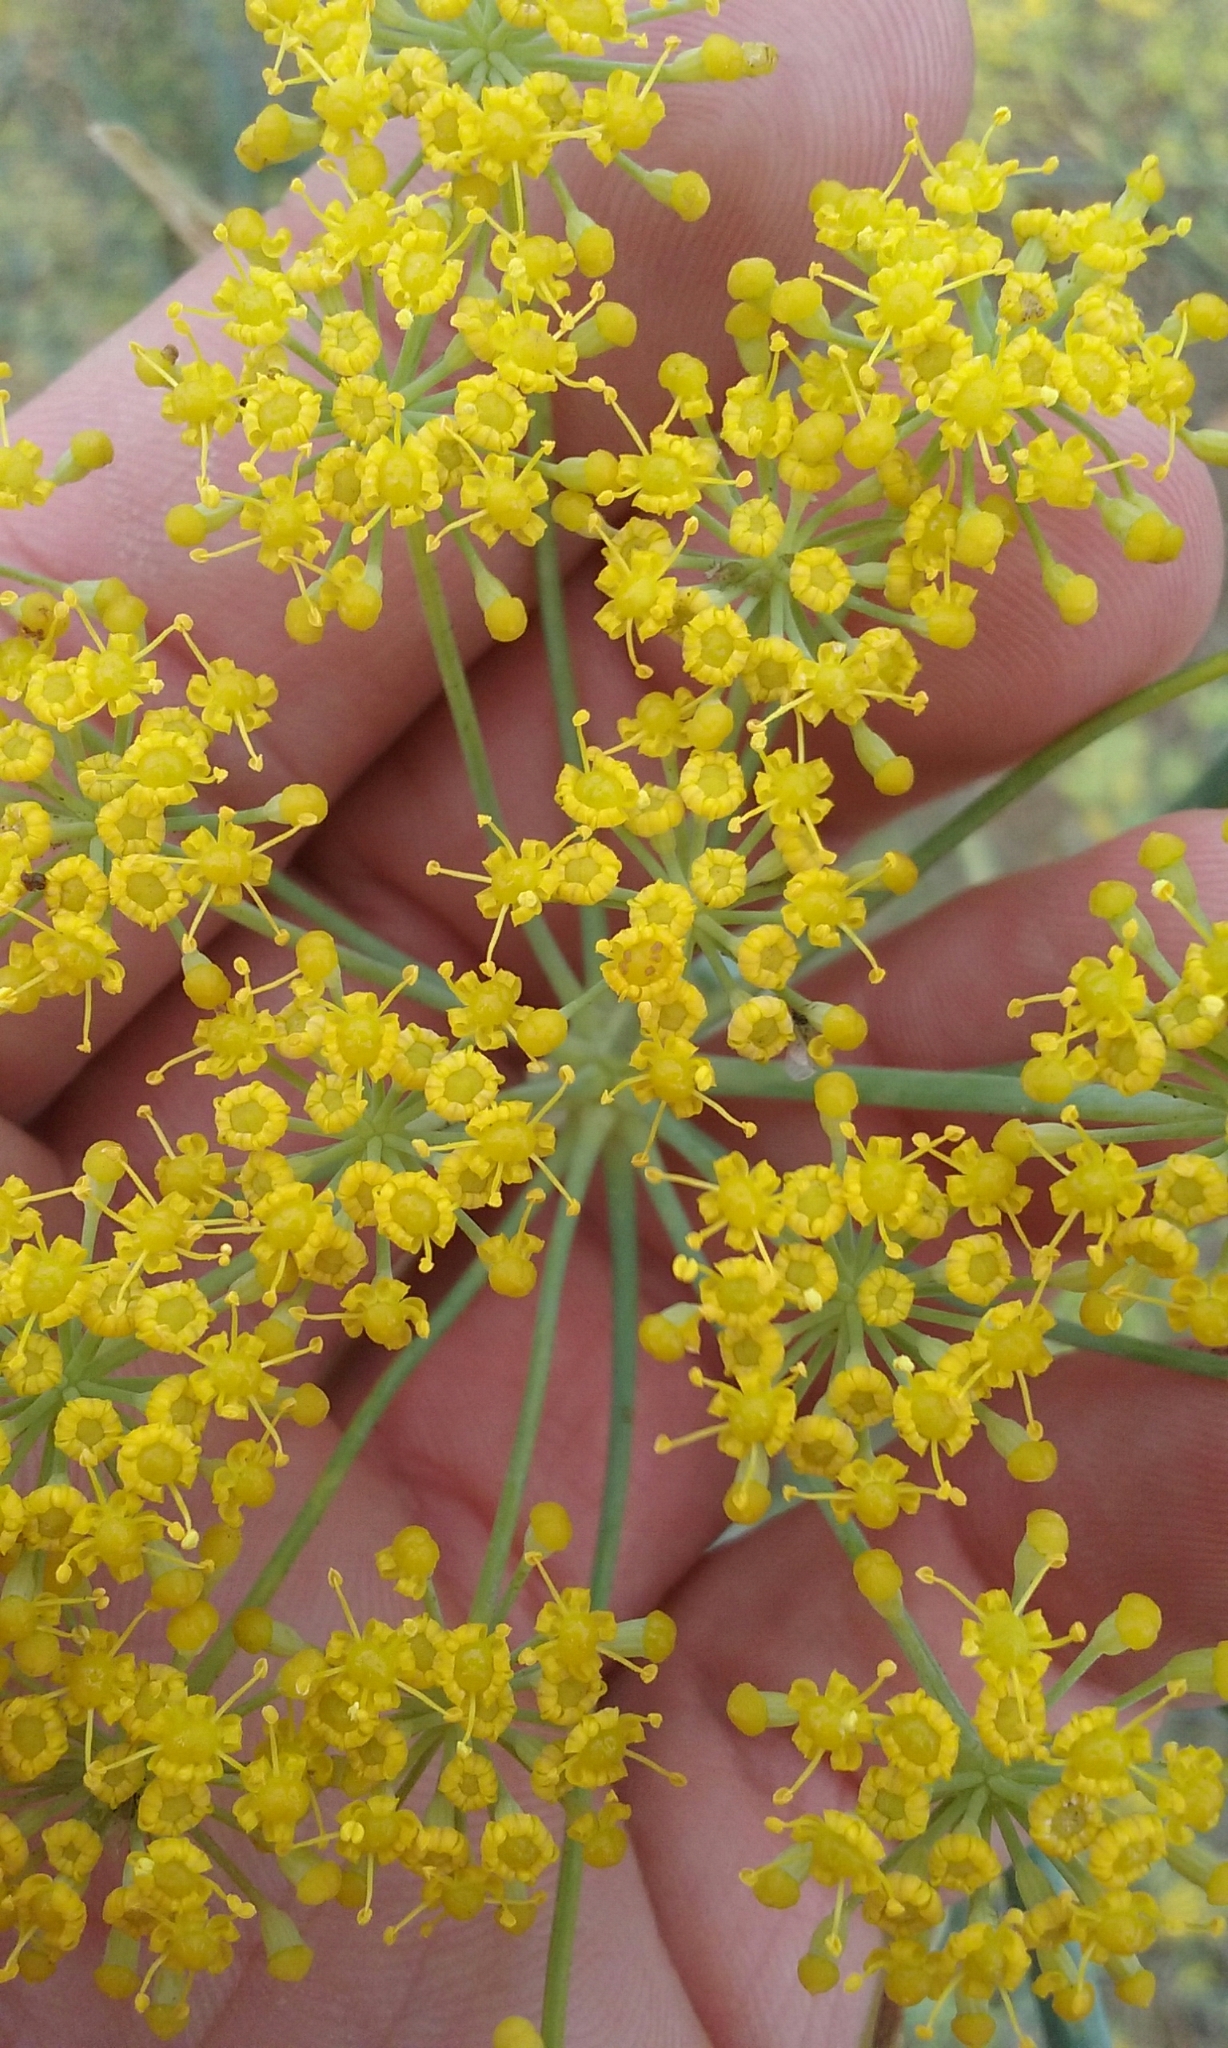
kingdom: Plantae
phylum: Tracheophyta
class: Magnoliopsida
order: Apiales
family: Apiaceae
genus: Foeniculum
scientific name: Foeniculum vulgare
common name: Fennel
